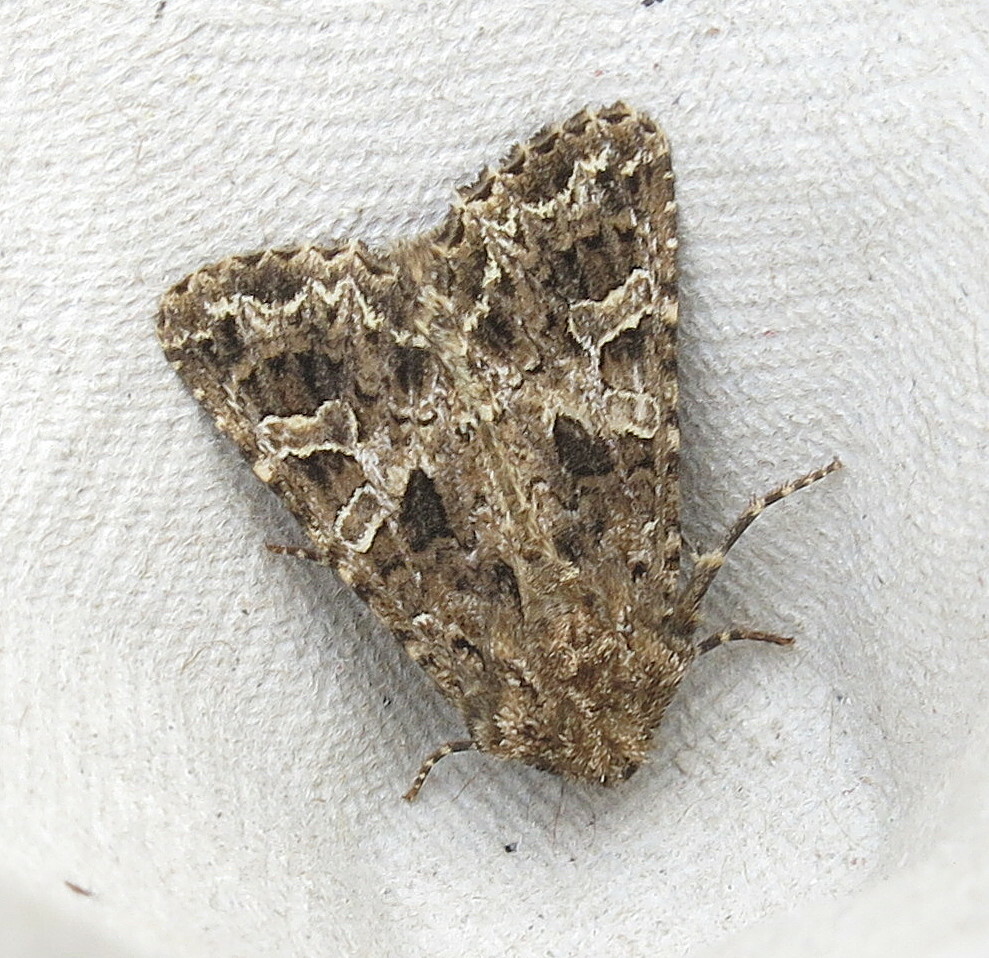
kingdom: Animalia
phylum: Arthropoda
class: Insecta
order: Lepidoptera
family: Noctuidae
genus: Hadena
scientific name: Hadena bicruris
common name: Lychnis
